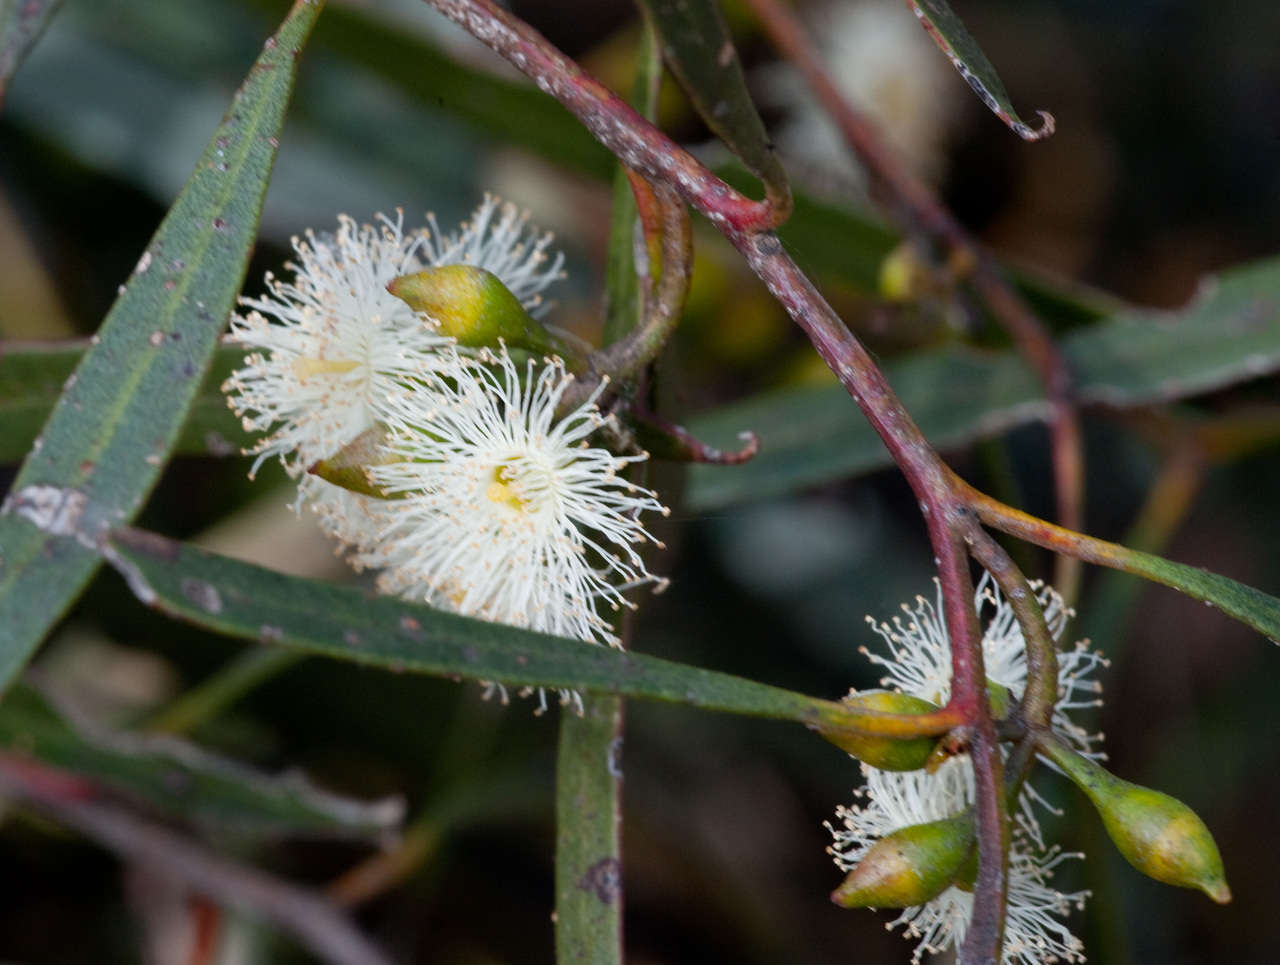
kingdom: Plantae
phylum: Tracheophyta
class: Magnoliopsida
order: Myrtales
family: Myrtaceae
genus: Eucalyptus
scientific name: Eucalyptus viridis
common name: Green mallee
